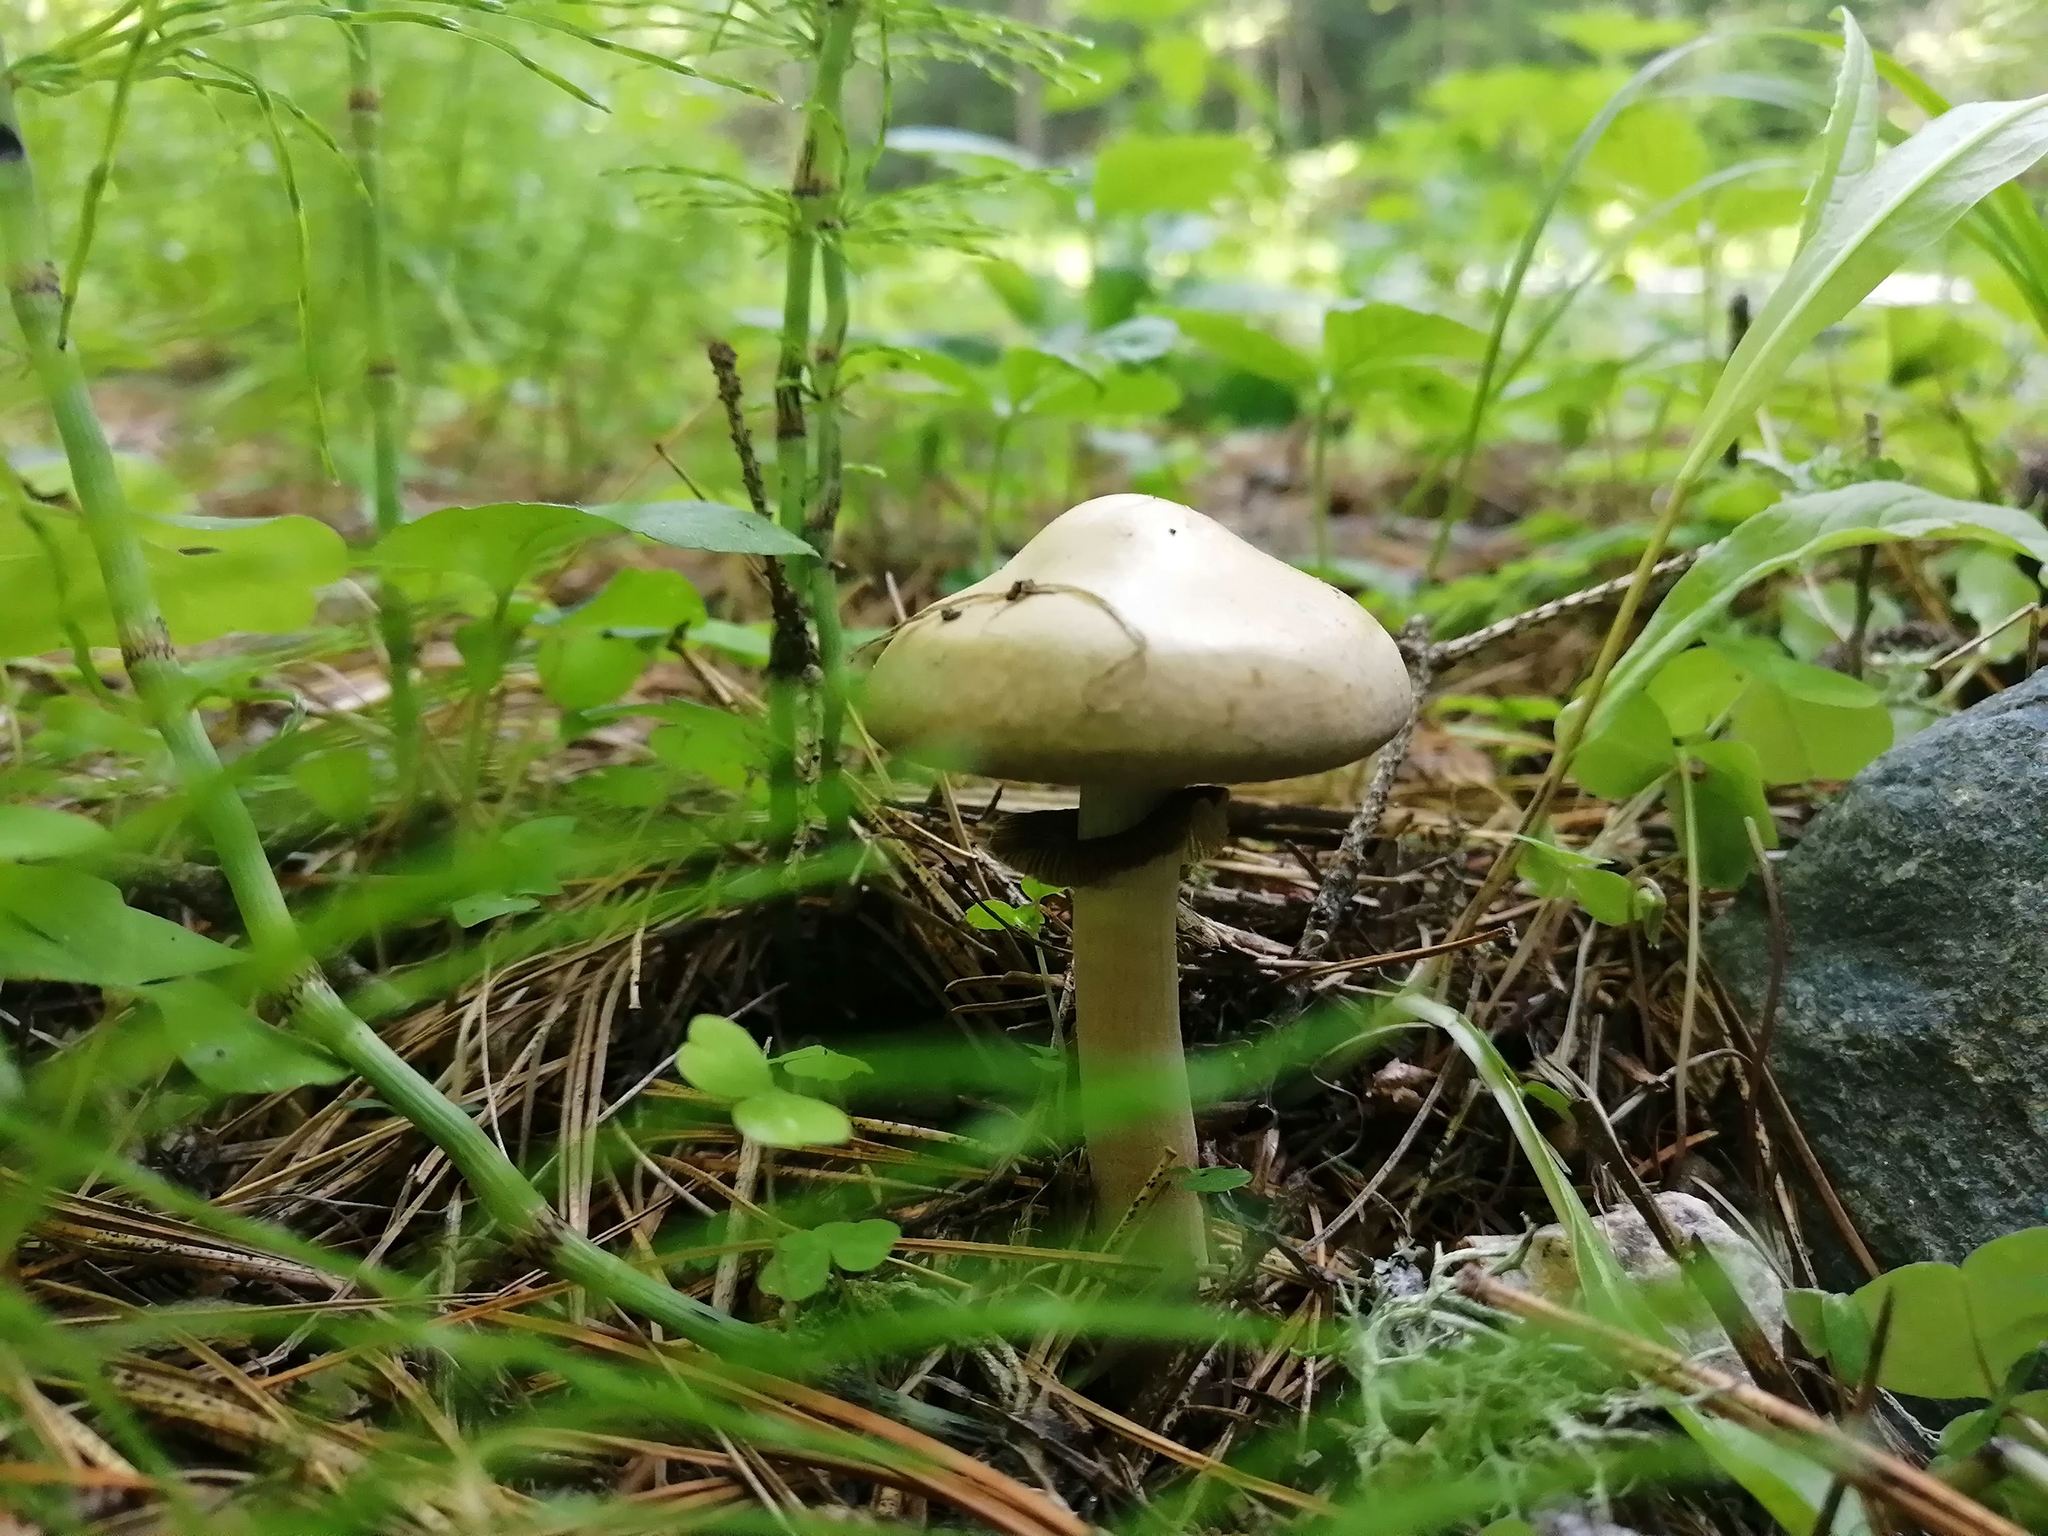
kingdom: Fungi
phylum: Basidiomycota
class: Agaricomycetes
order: Agaricales
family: Strophariaceae
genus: Agrocybe
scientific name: Agrocybe praecox
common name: Spring fieldcap
